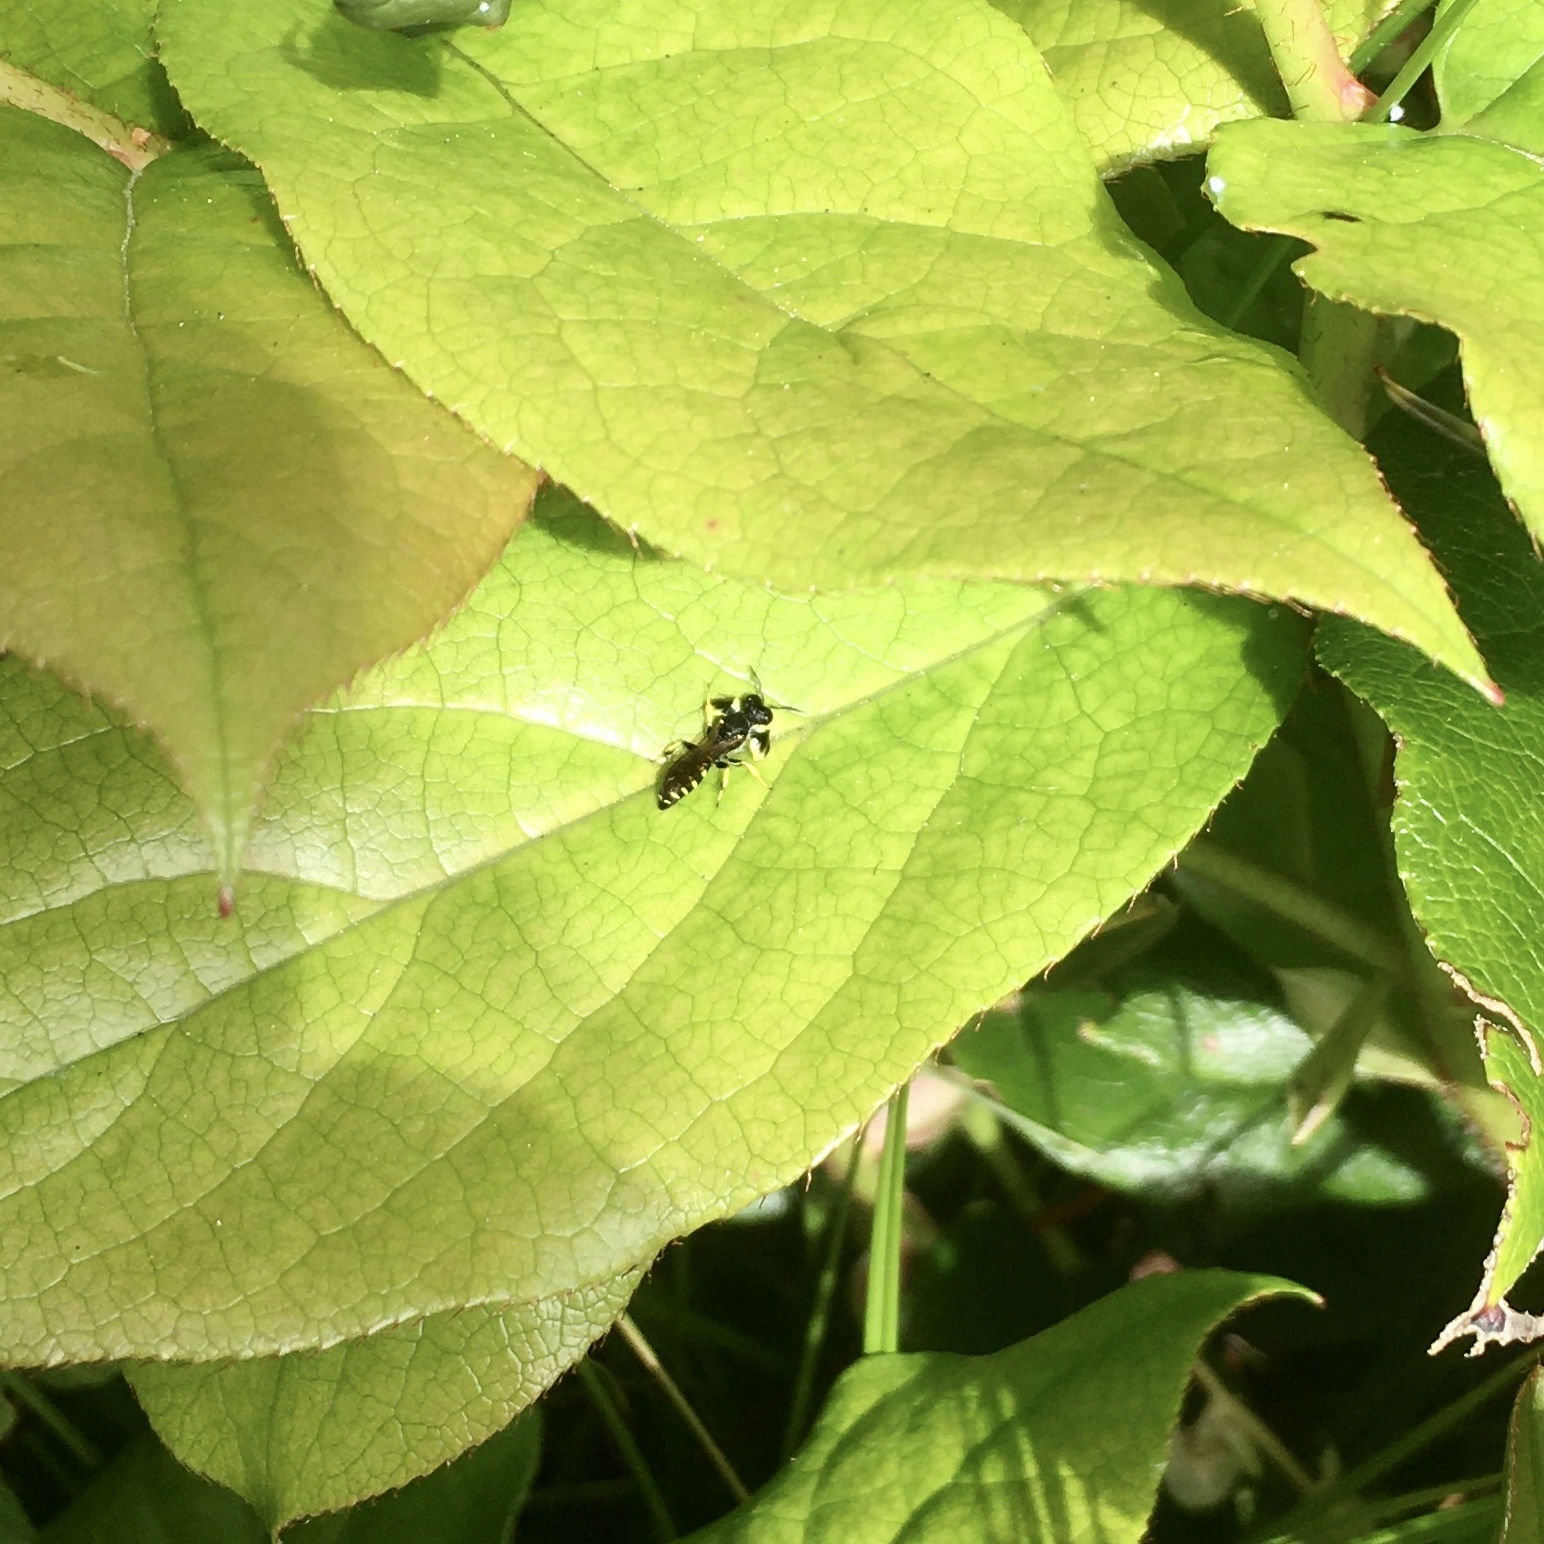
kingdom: Animalia
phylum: Arthropoda
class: Insecta
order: Hymenoptera
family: Crabronidae
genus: Crabro
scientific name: Crabro latipes
